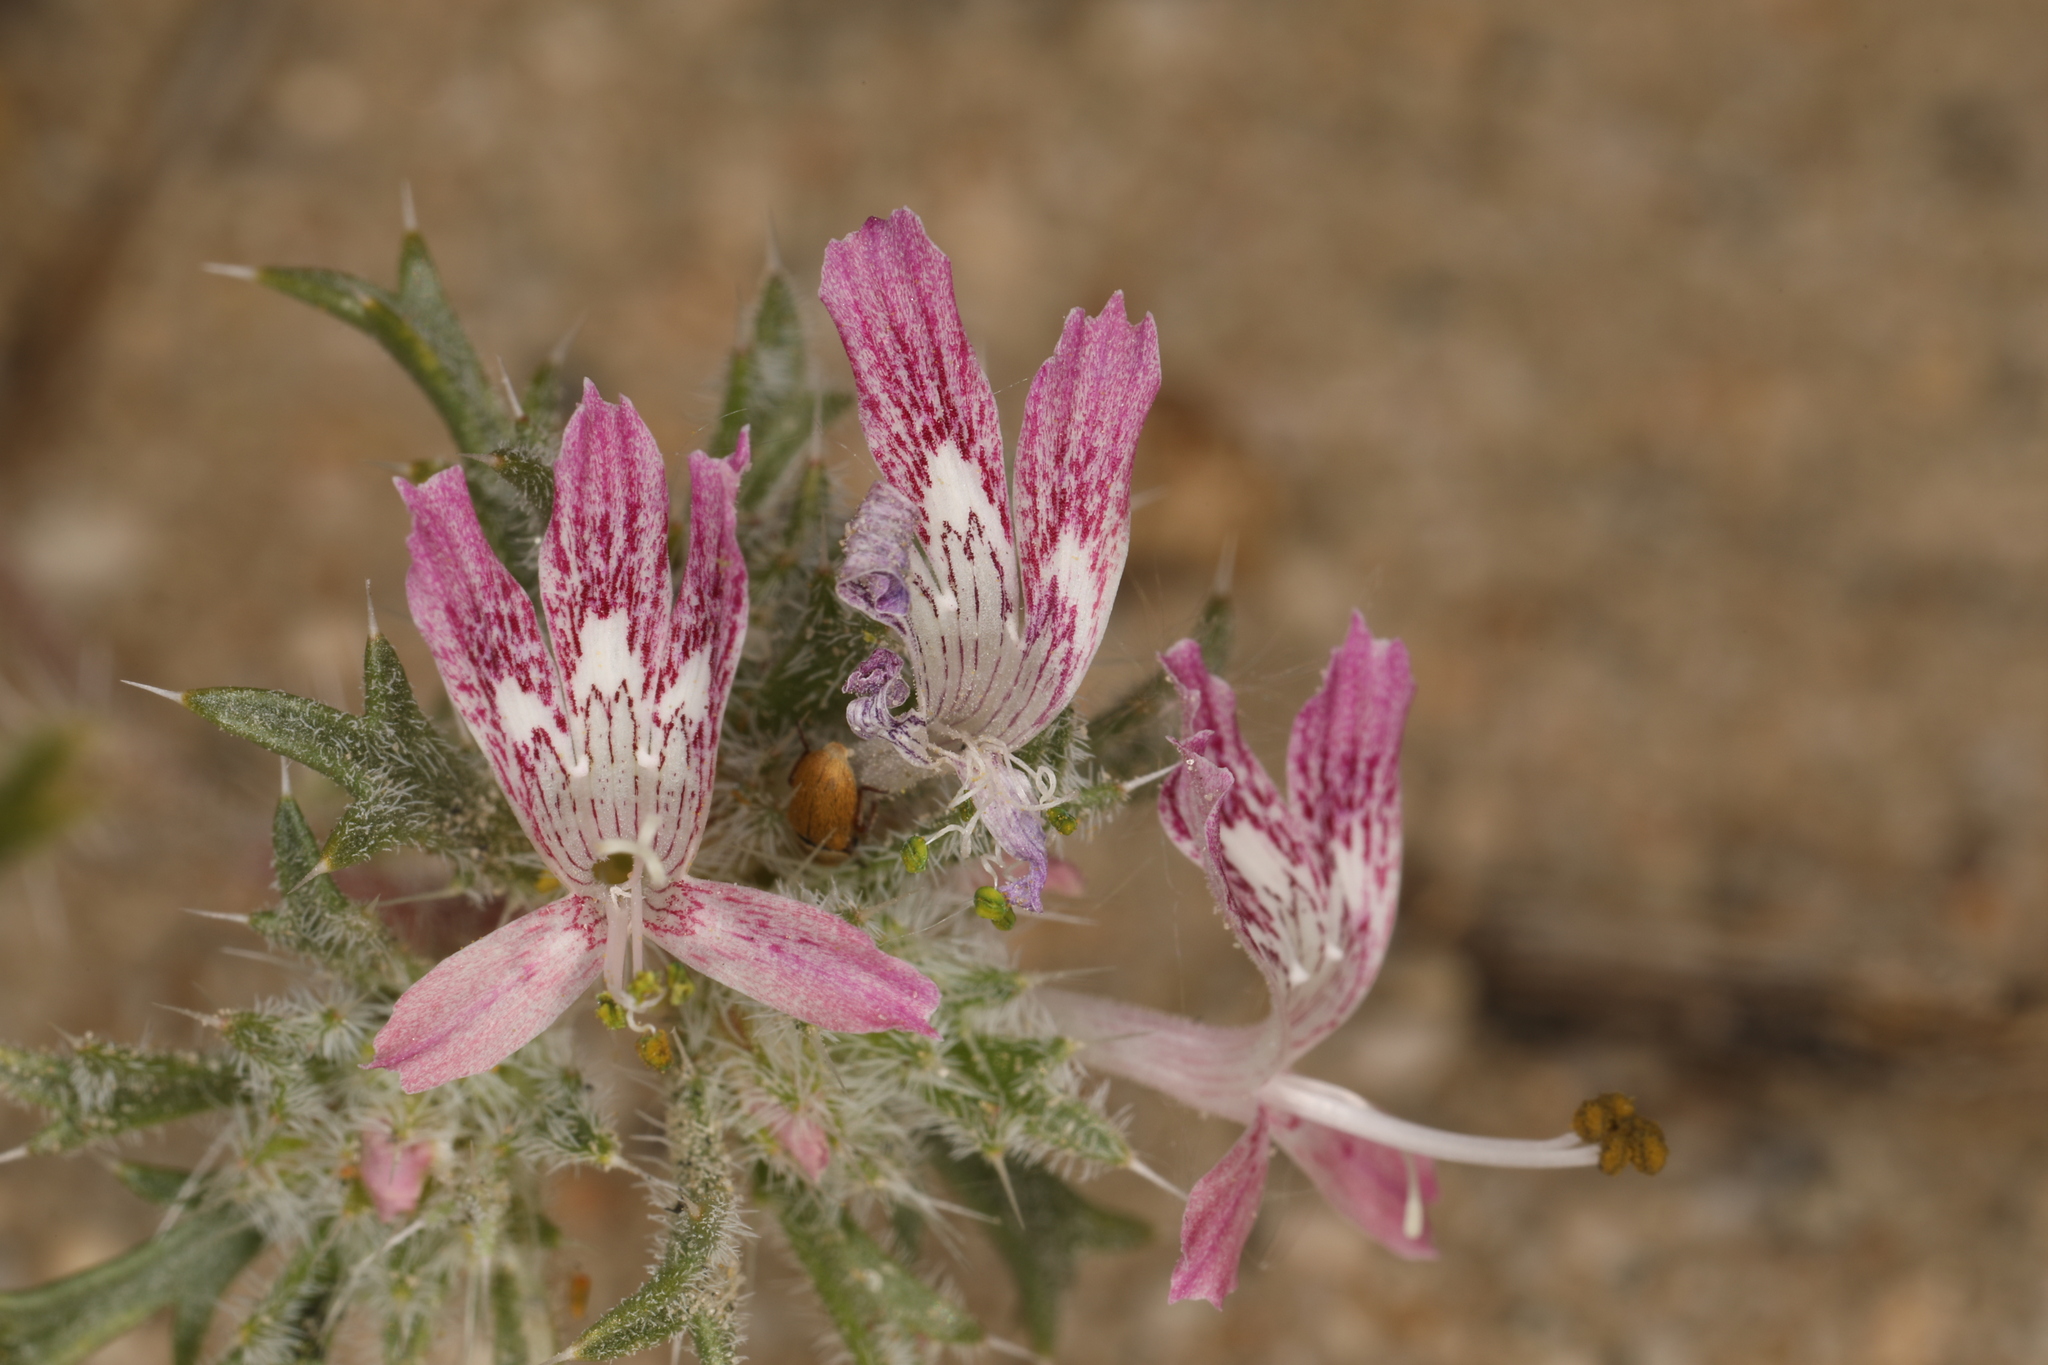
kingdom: Plantae
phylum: Tracheophyta
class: Magnoliopsida
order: Ericales
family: Polemoniaceae
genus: Loeseliastrum
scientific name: Loeseliastrum matthewsii
